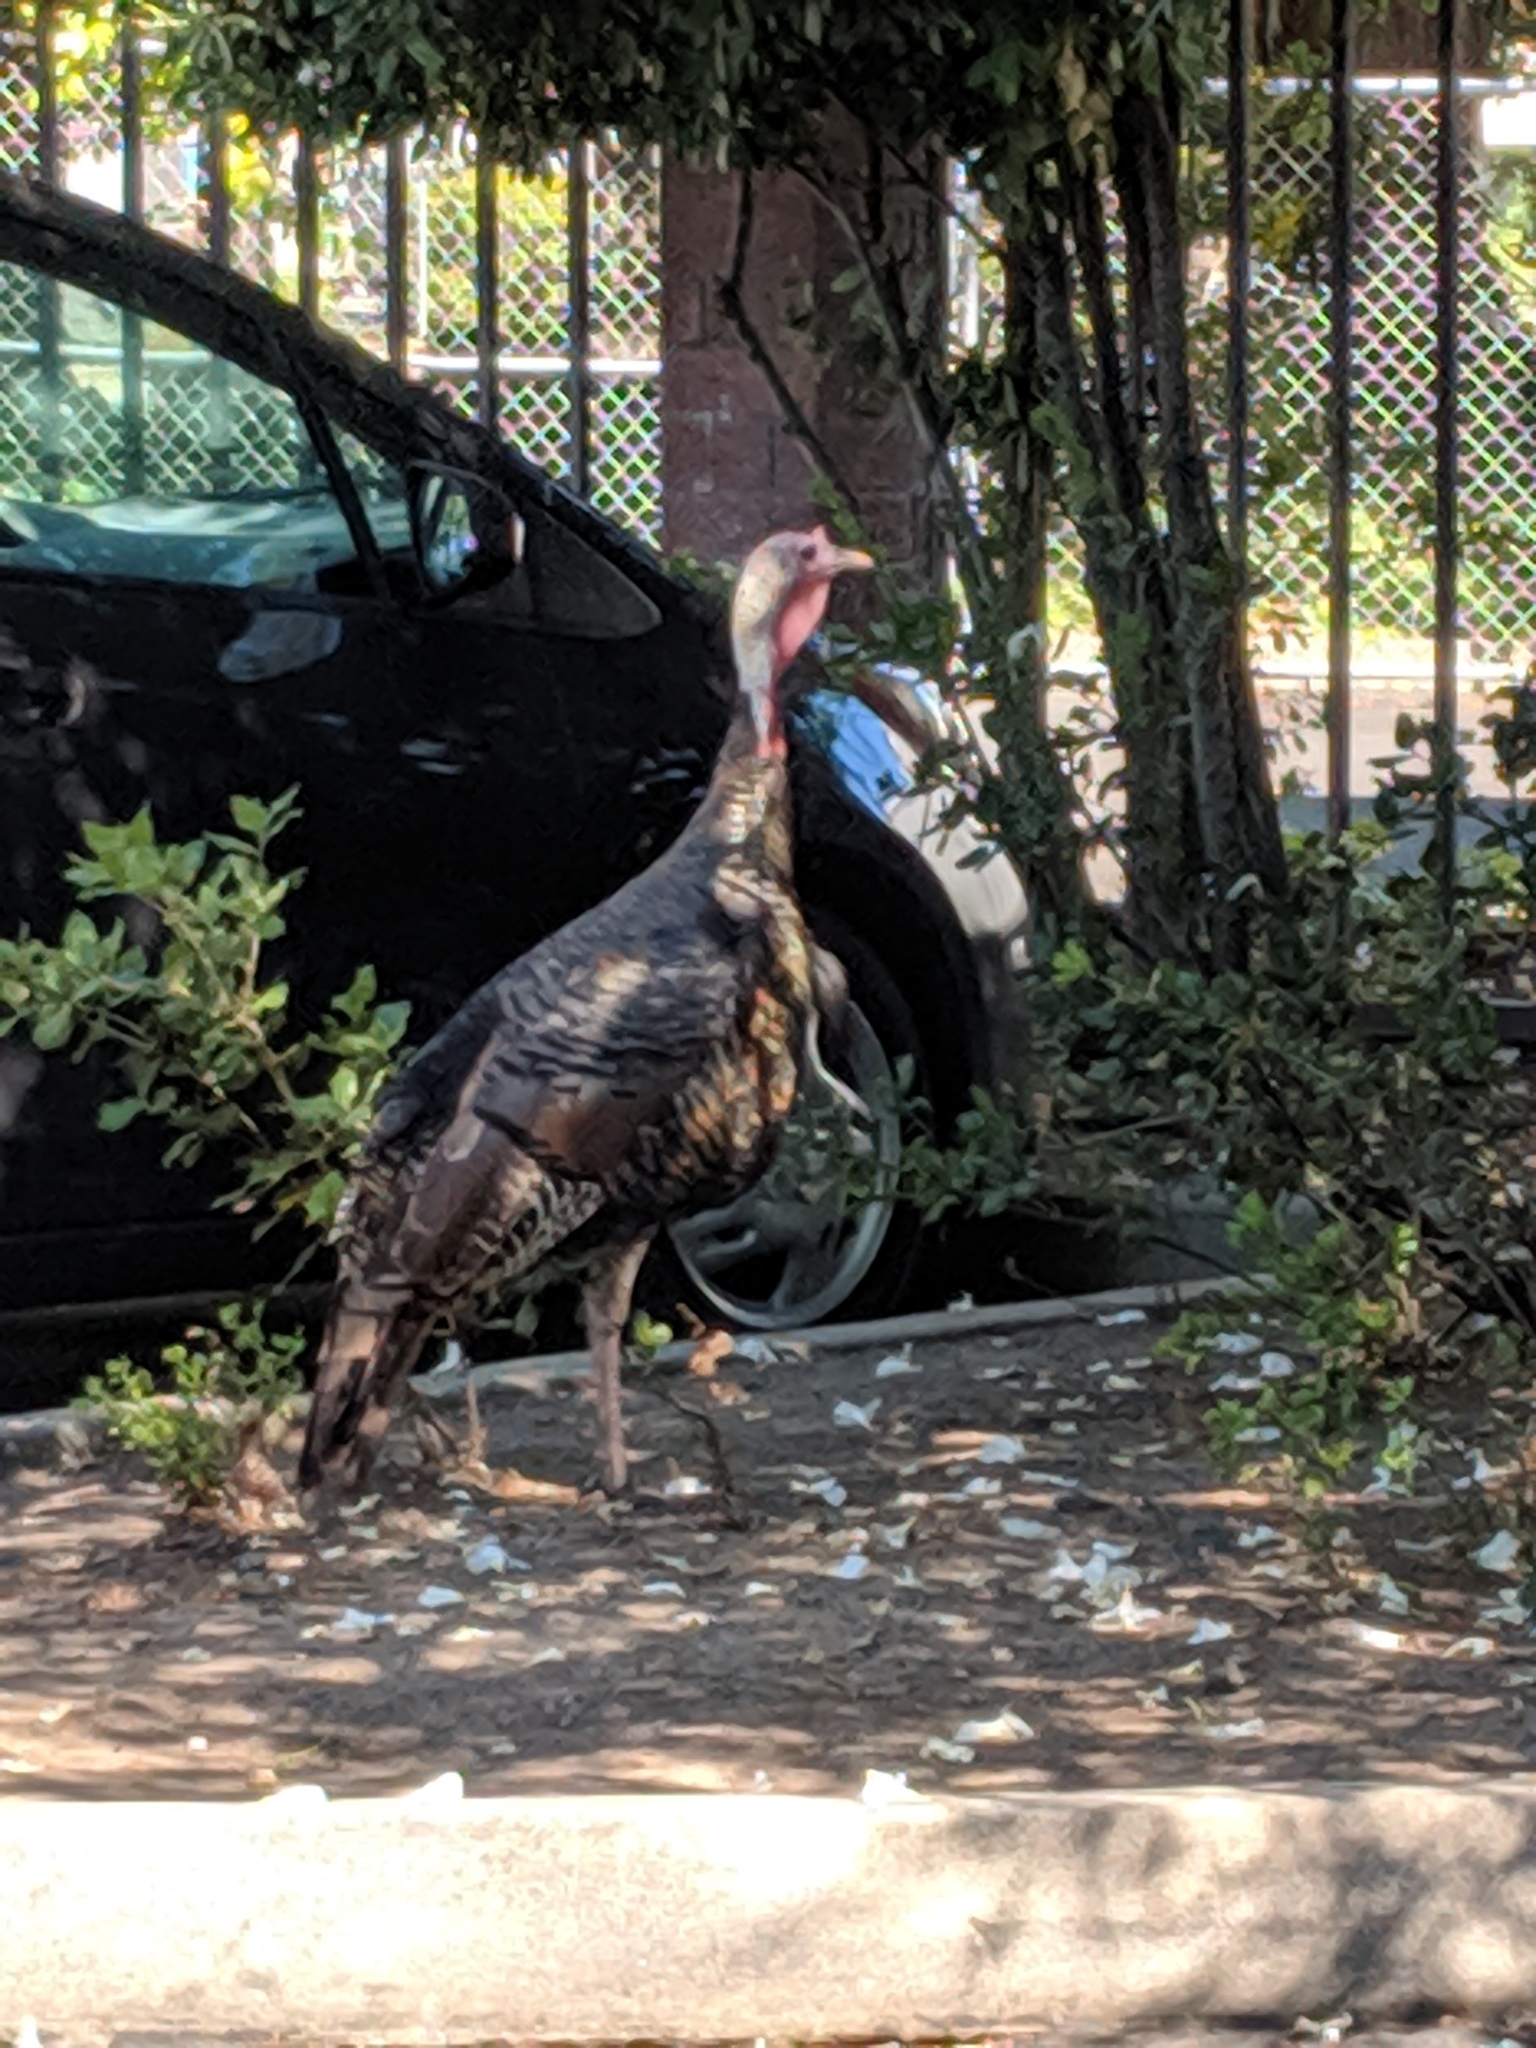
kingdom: Animalia
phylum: Chordata
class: Aves
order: Galliformes
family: Phasianidae
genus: Meleagris
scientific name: Meleagris gallopavo
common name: Wild turkey
